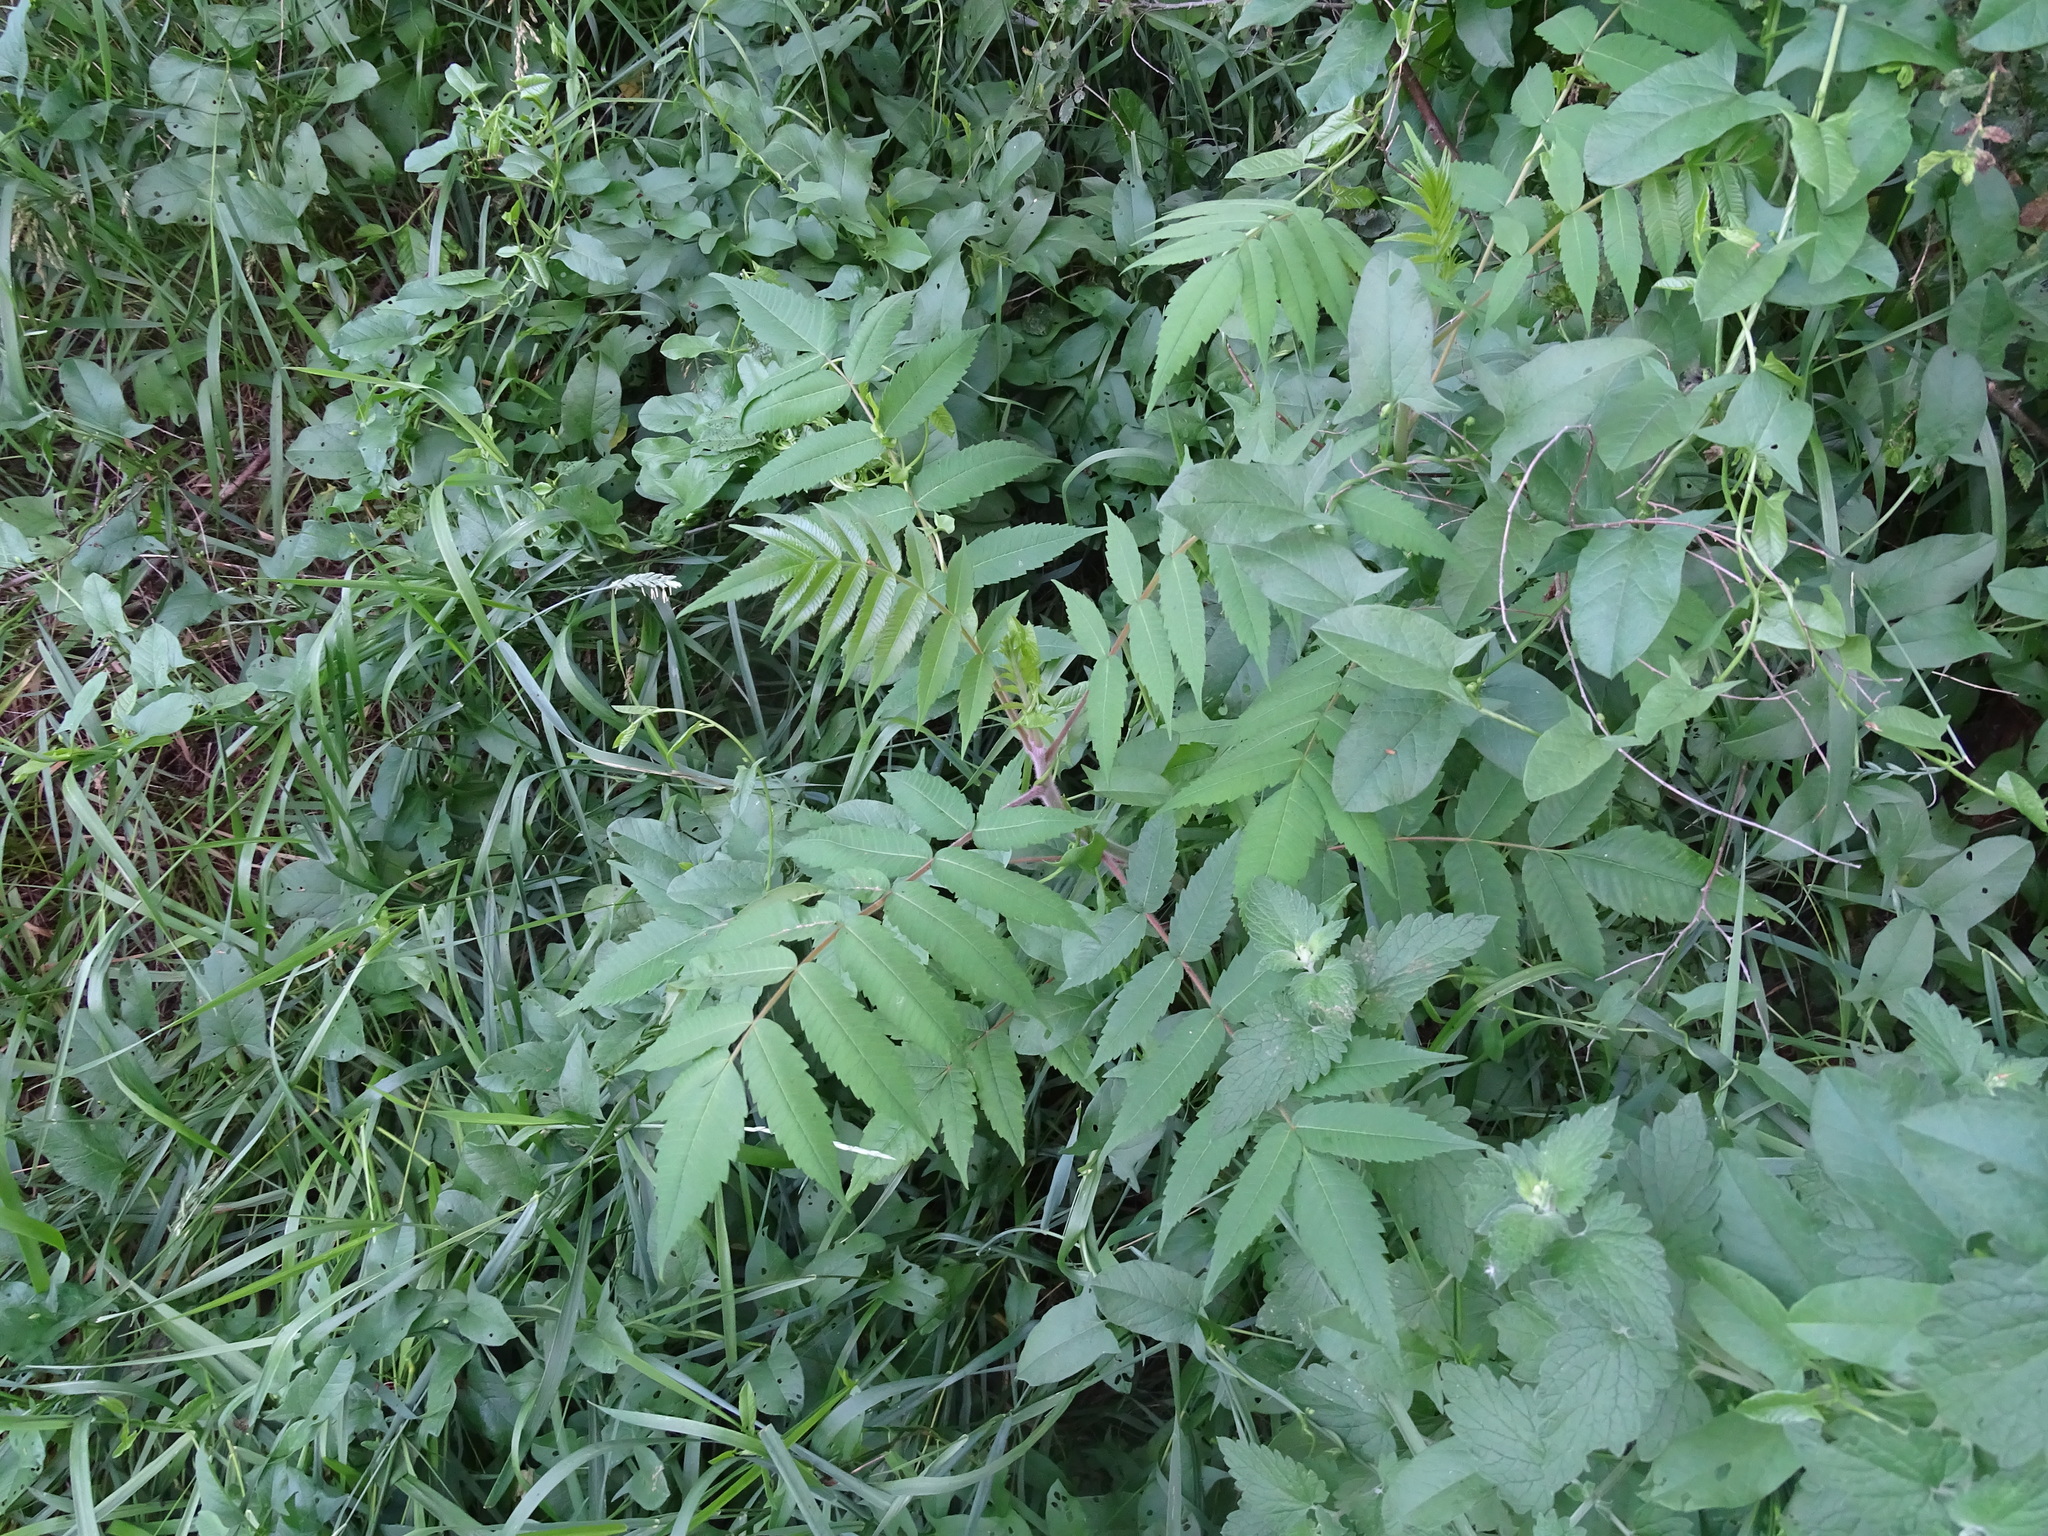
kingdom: Plantae
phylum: Tracheophyta
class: Magnoliopsida
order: Sapindales
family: Anacardiaceae
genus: Rhus
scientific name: Rhus typhina
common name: Staghorn sumac
